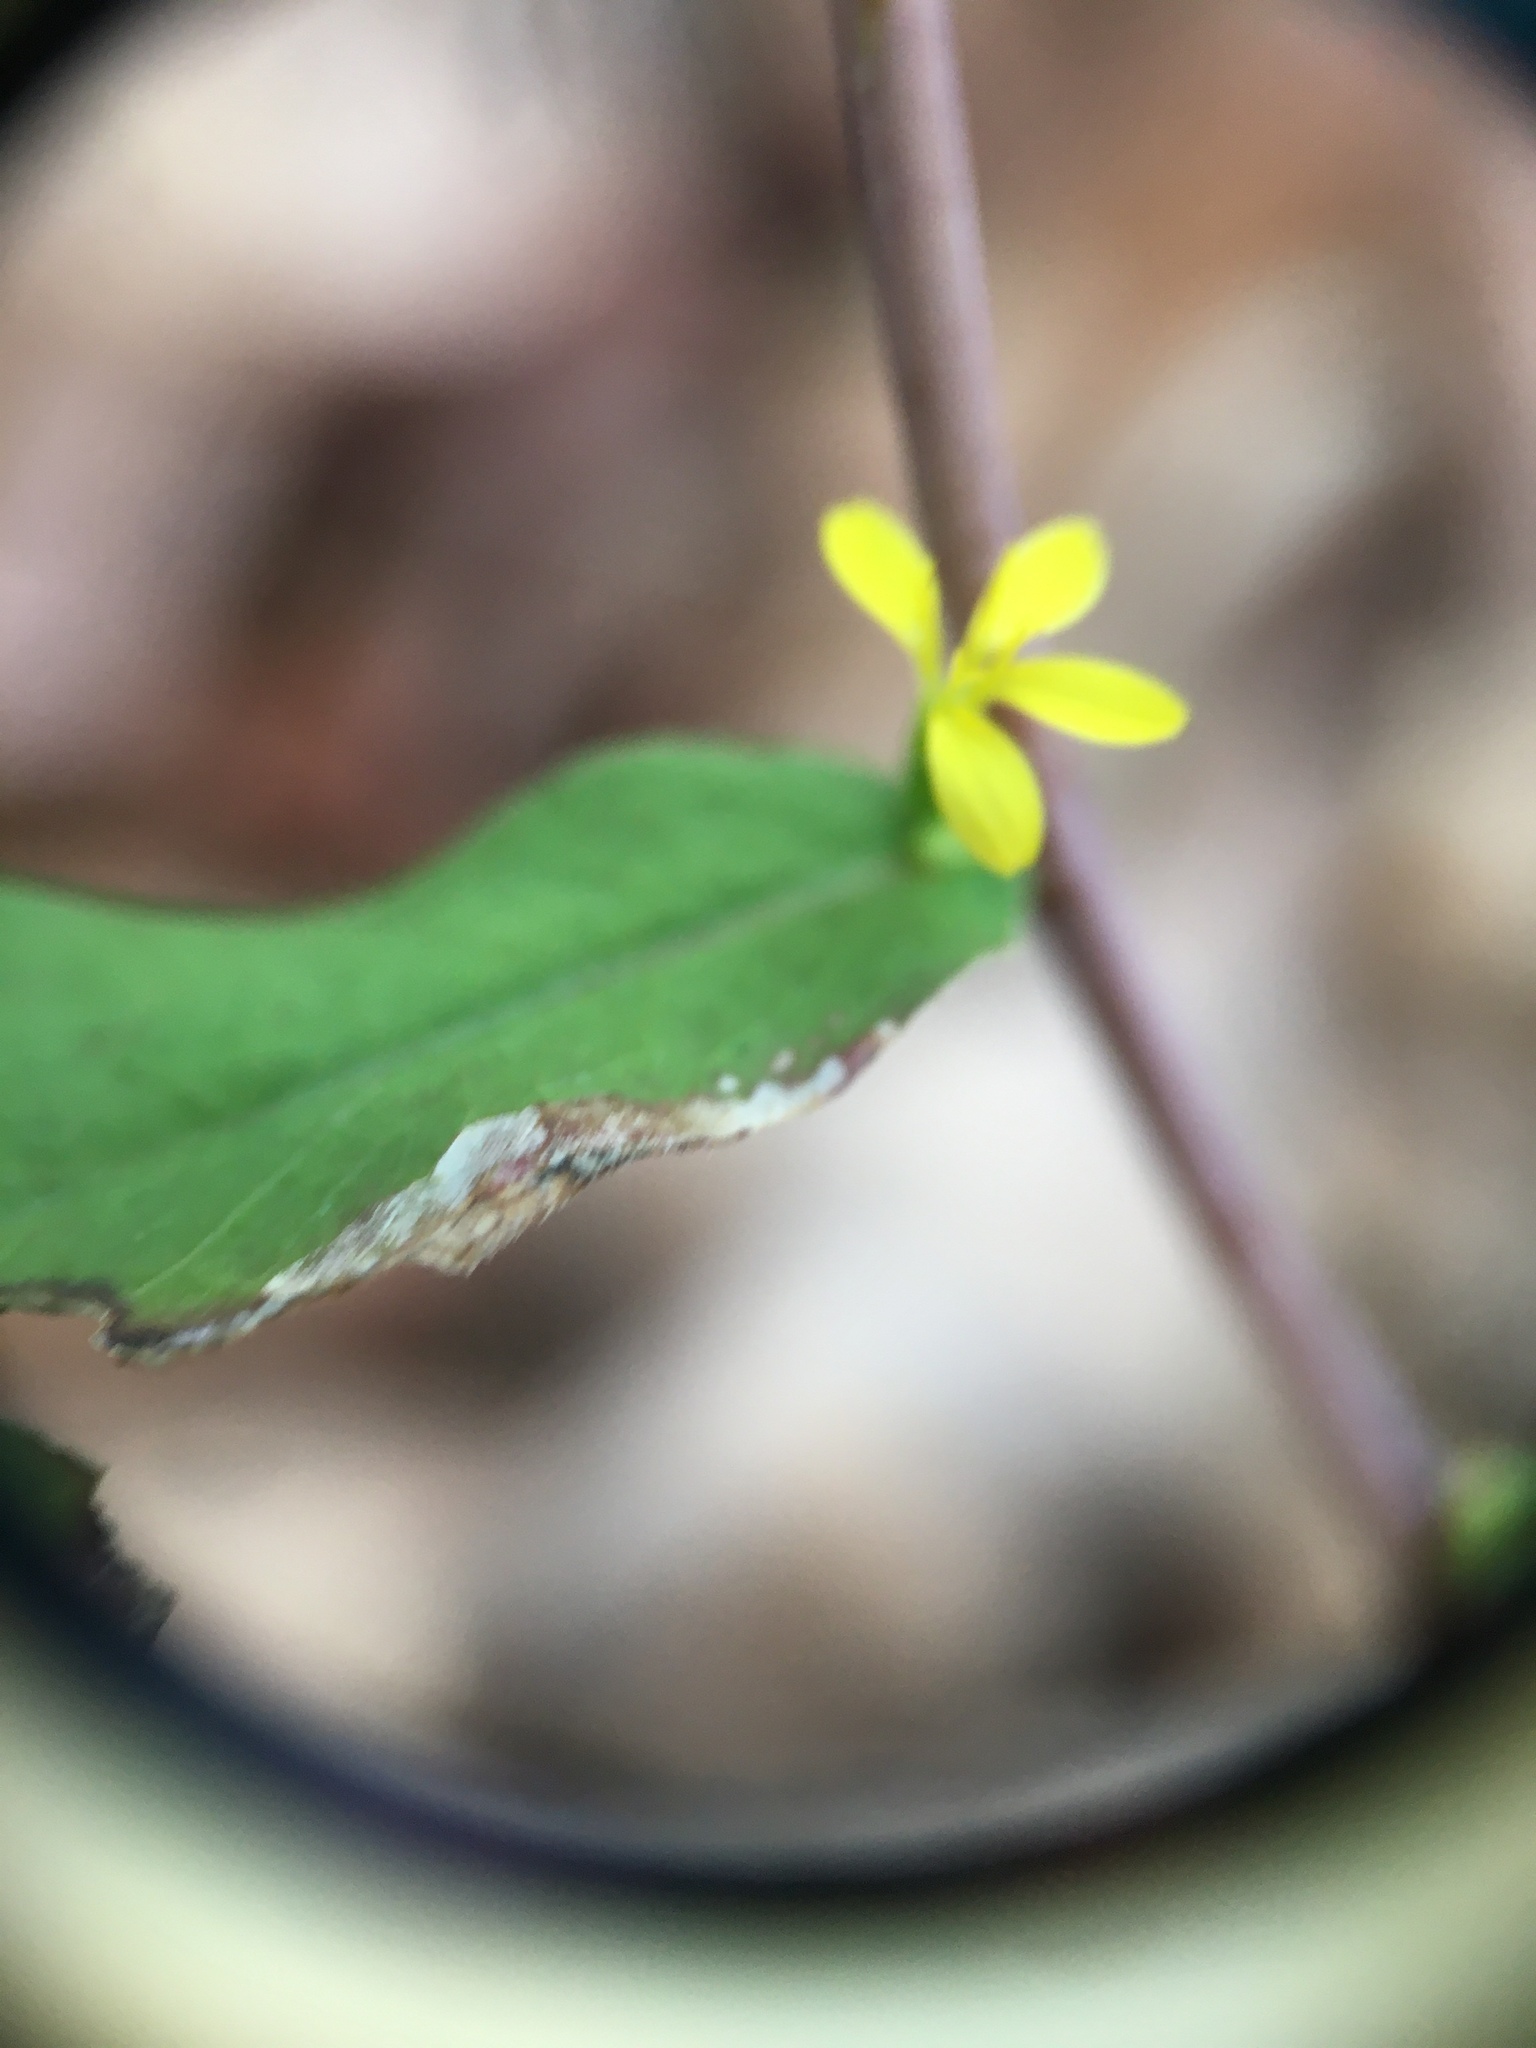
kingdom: Plantae
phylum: Tracheophyta
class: Magnoliopsida
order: Asterales
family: Asteraceae
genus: Solidago
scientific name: Solidago caesia
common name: Woodland goldenrod
